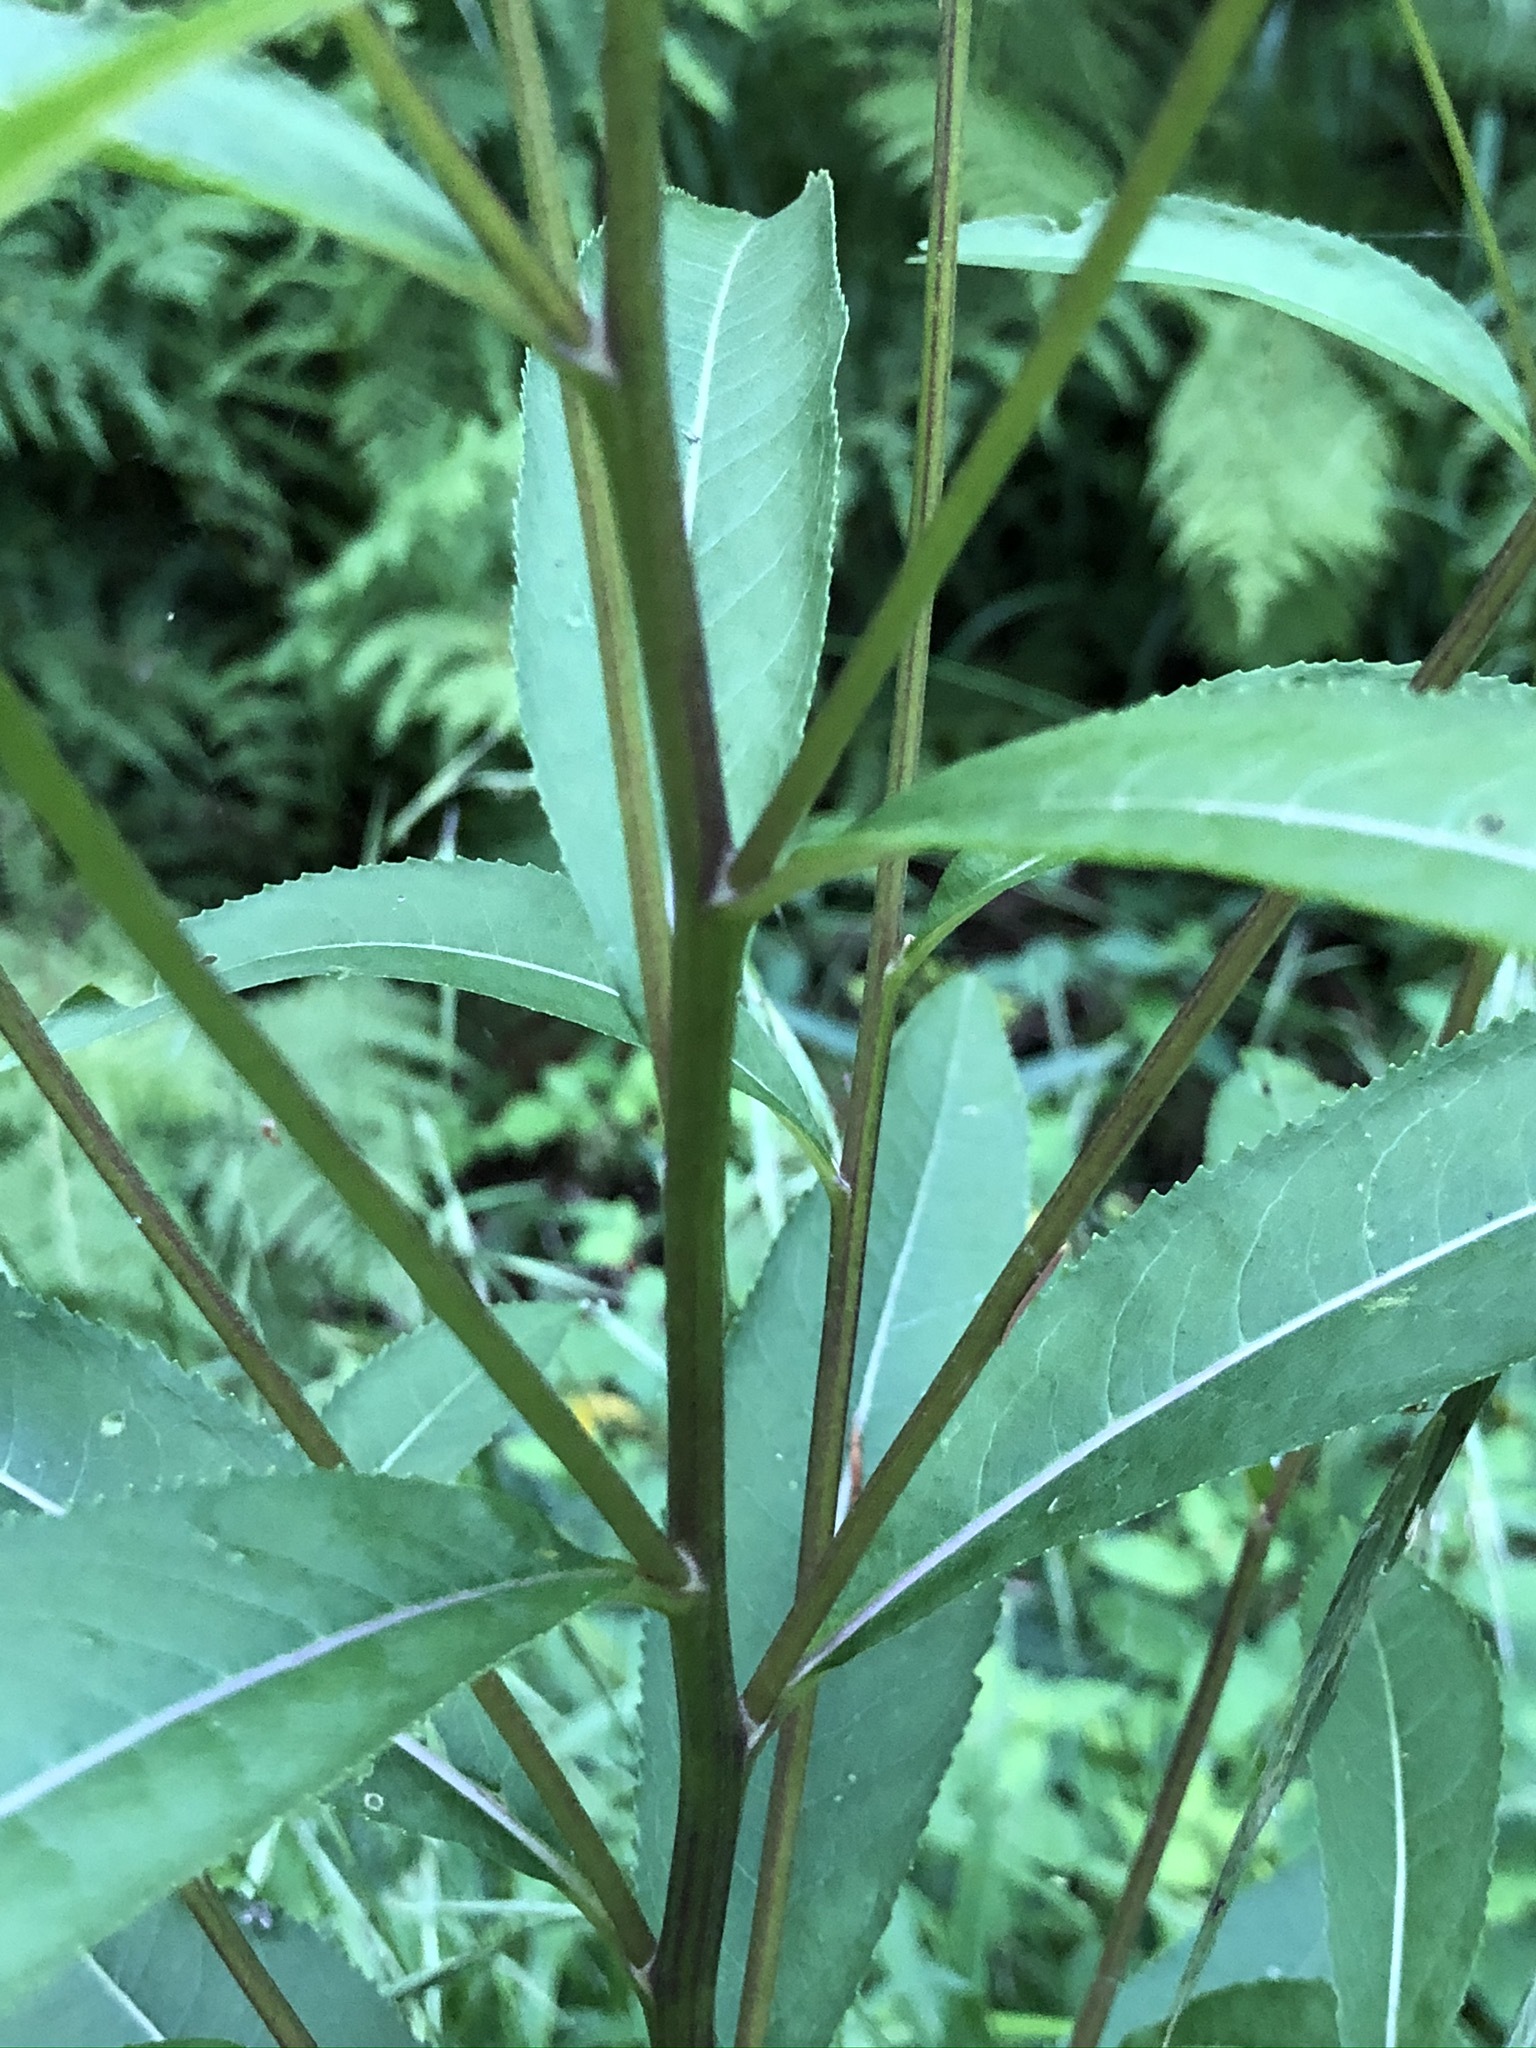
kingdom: Plantae
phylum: Tracheophyta
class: Magnoliopsida
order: Asterales
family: Asteraceae
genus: Senecio
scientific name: Senecio ovatus
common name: Wood ragwort
